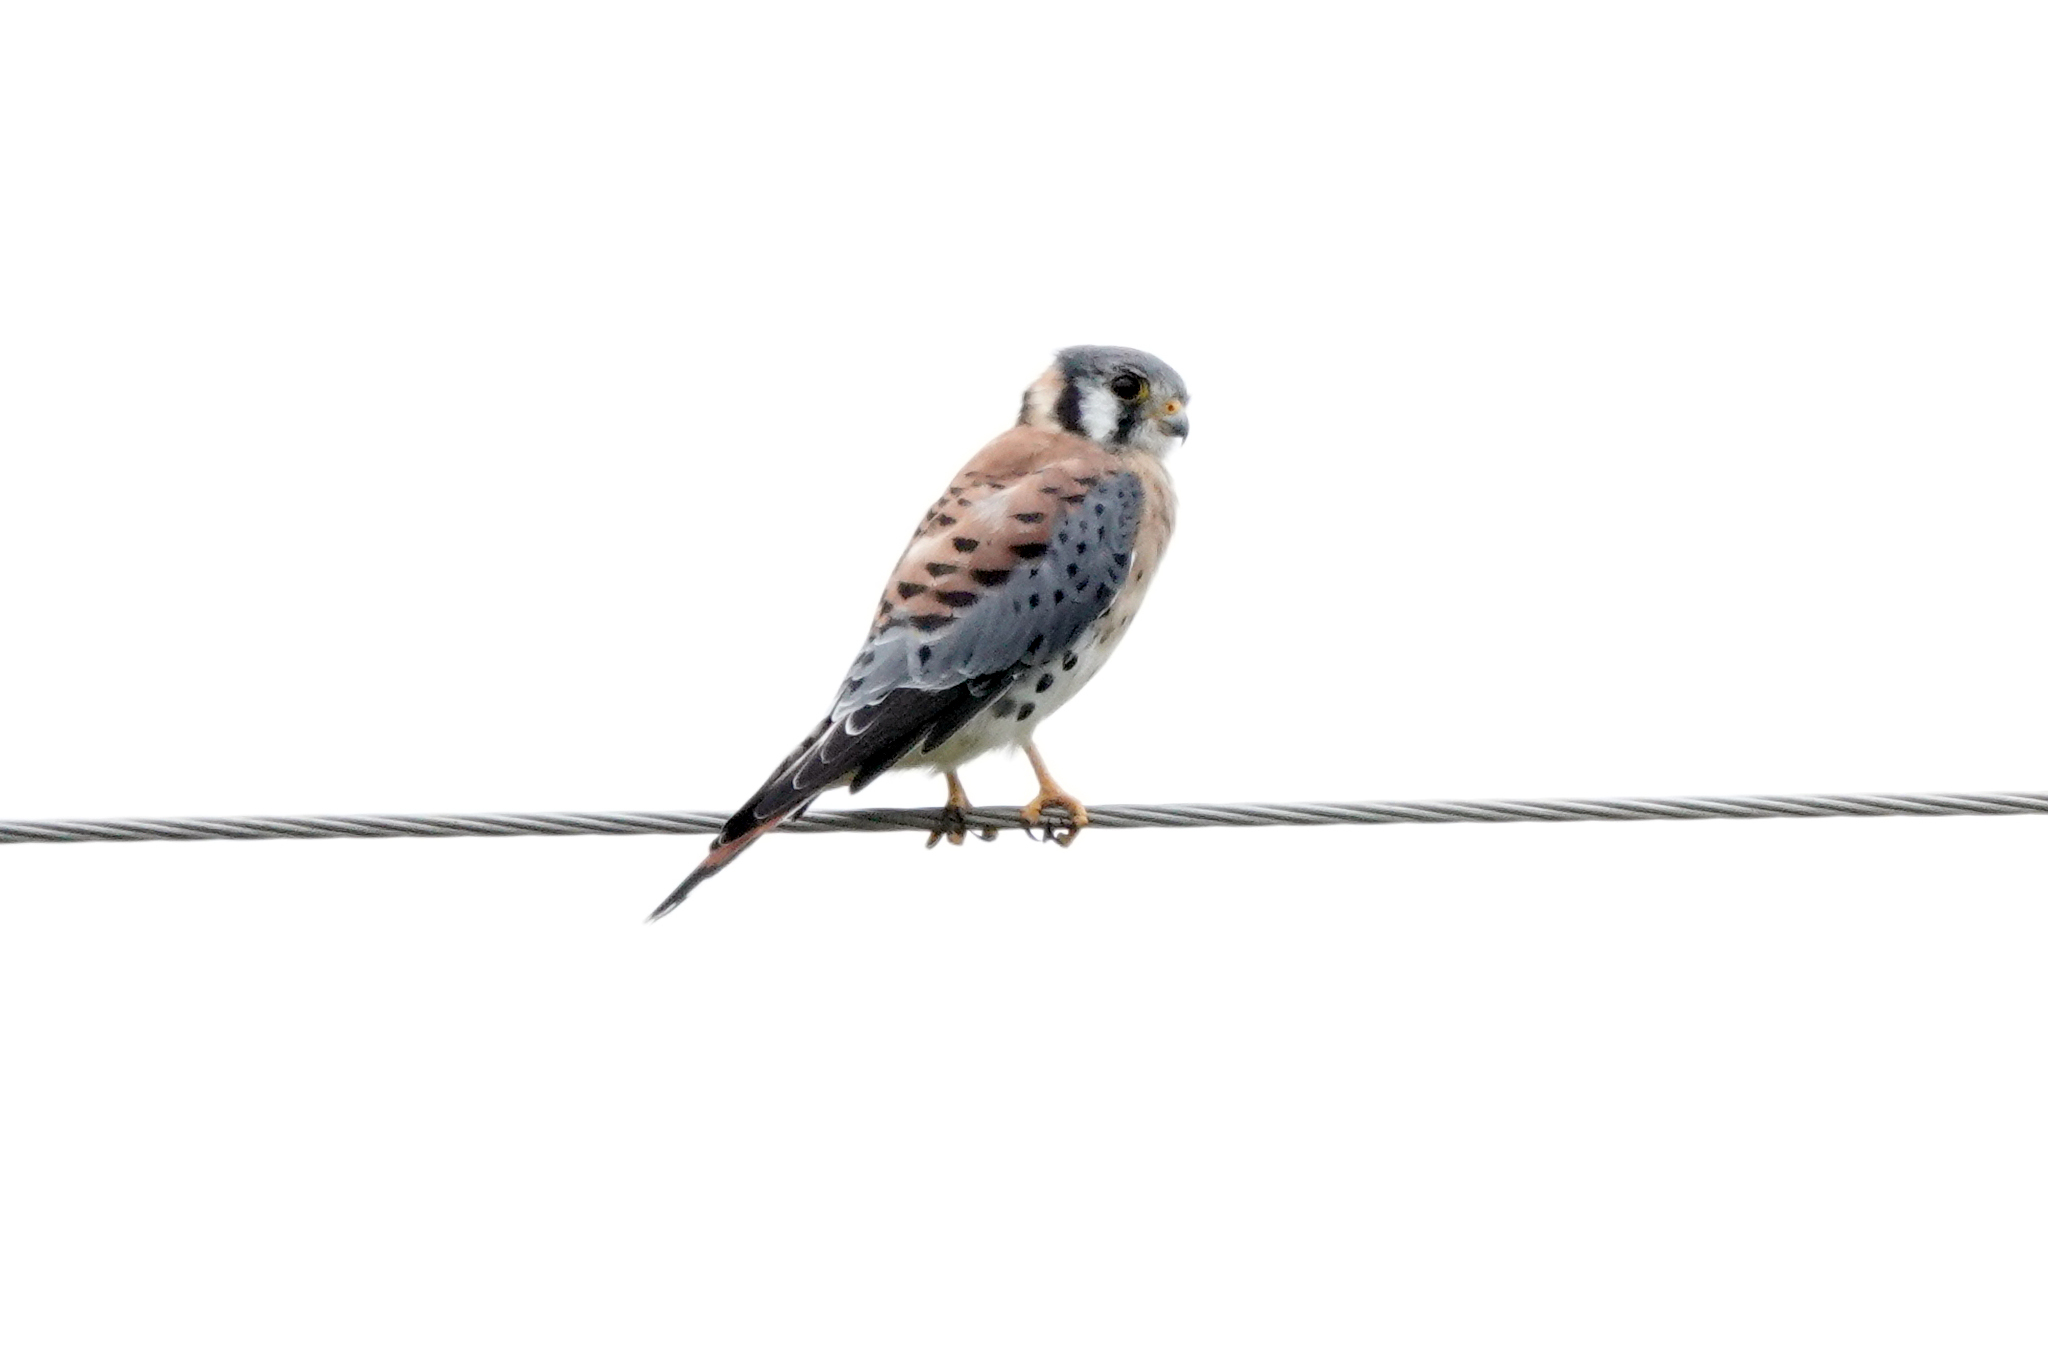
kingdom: Animalia
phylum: Chordata
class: Aves
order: Falconiformes
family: Falconidae
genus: Falco
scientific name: Falco sparverius
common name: American kestrel
